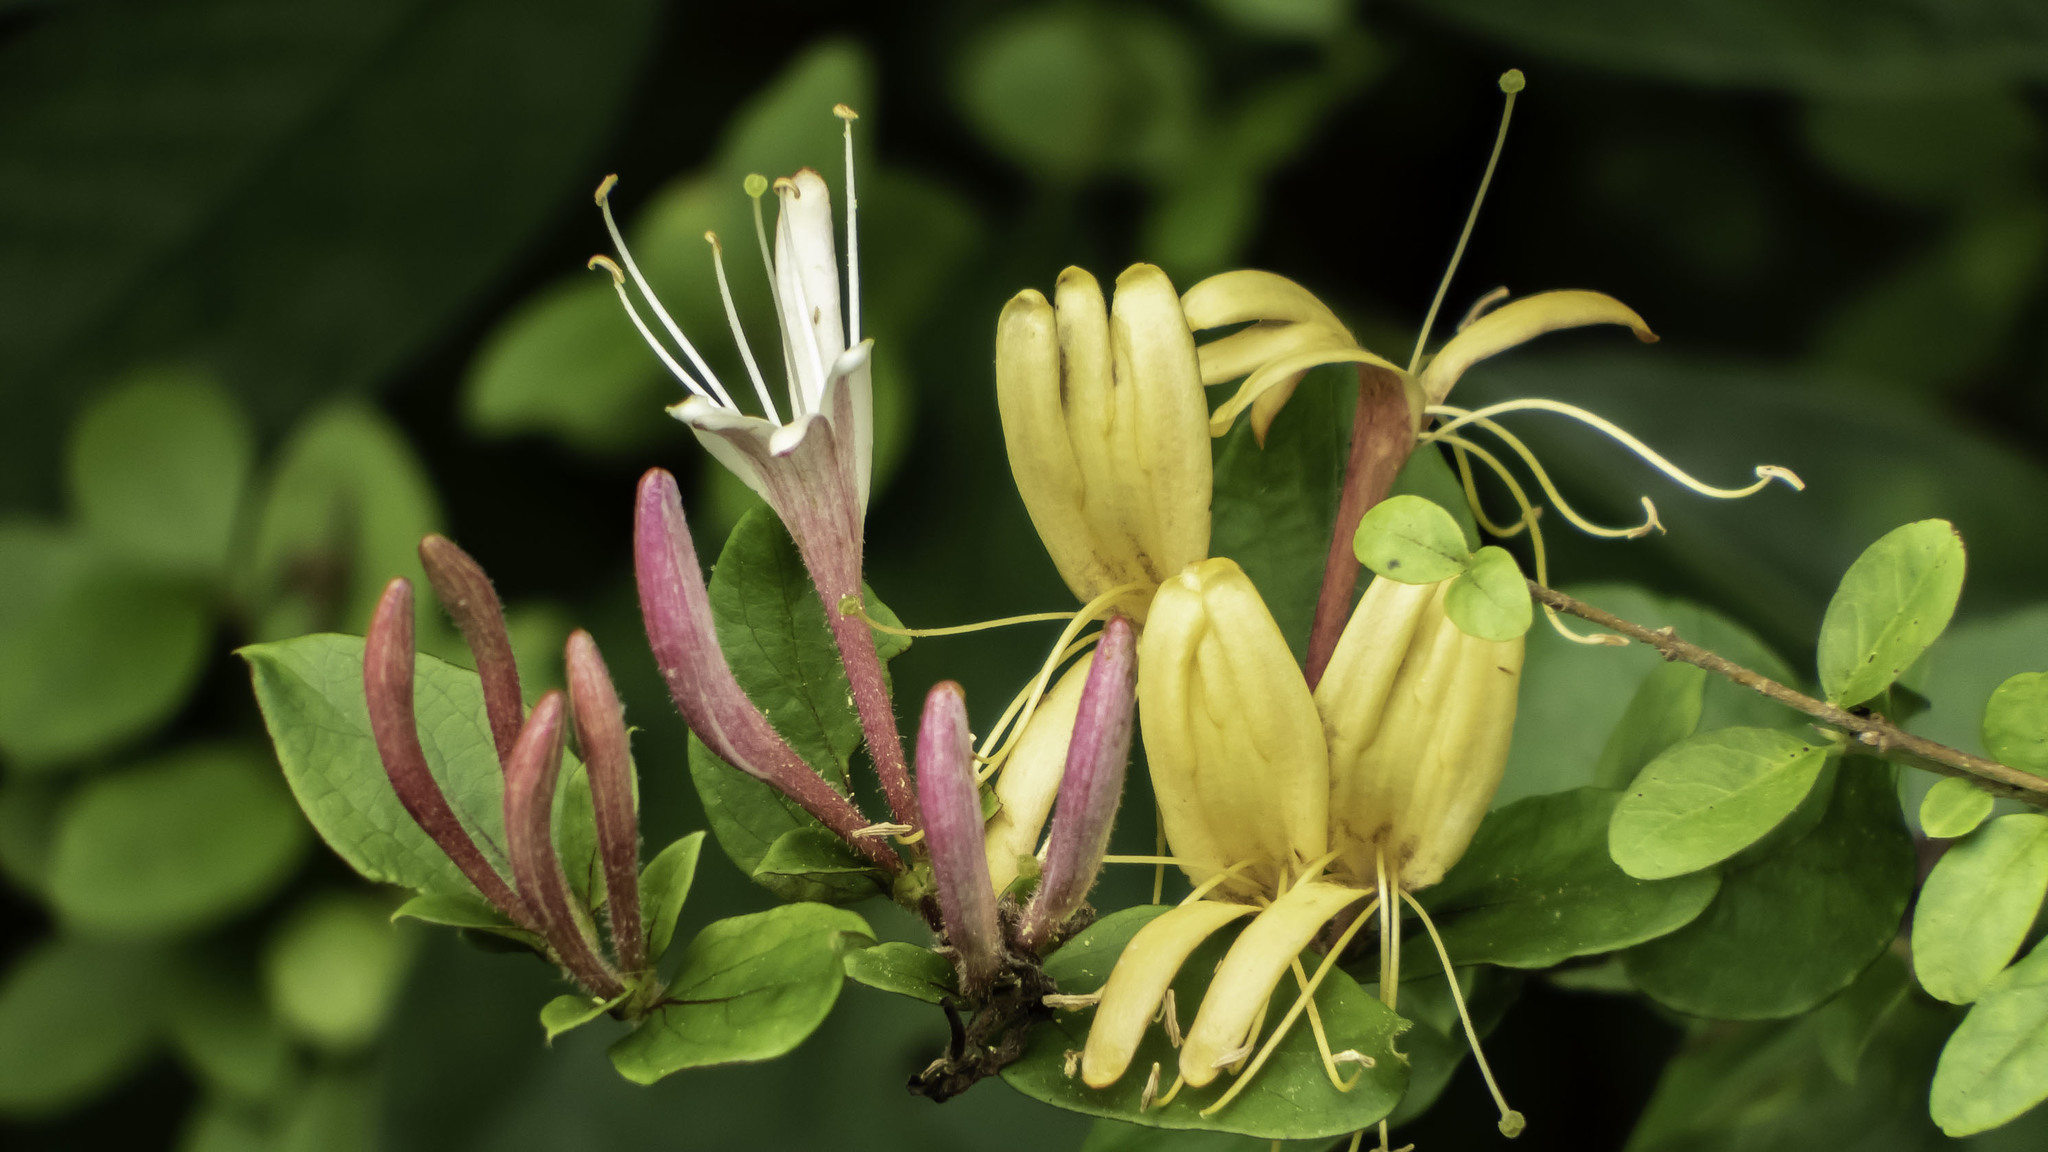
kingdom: Plantae
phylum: Tracheophyta
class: Magnoliopsida
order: Dipsacales
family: Caprifoliaceae
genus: Lonicera
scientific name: Lonicera japonica
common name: Japanese honeysuckle
